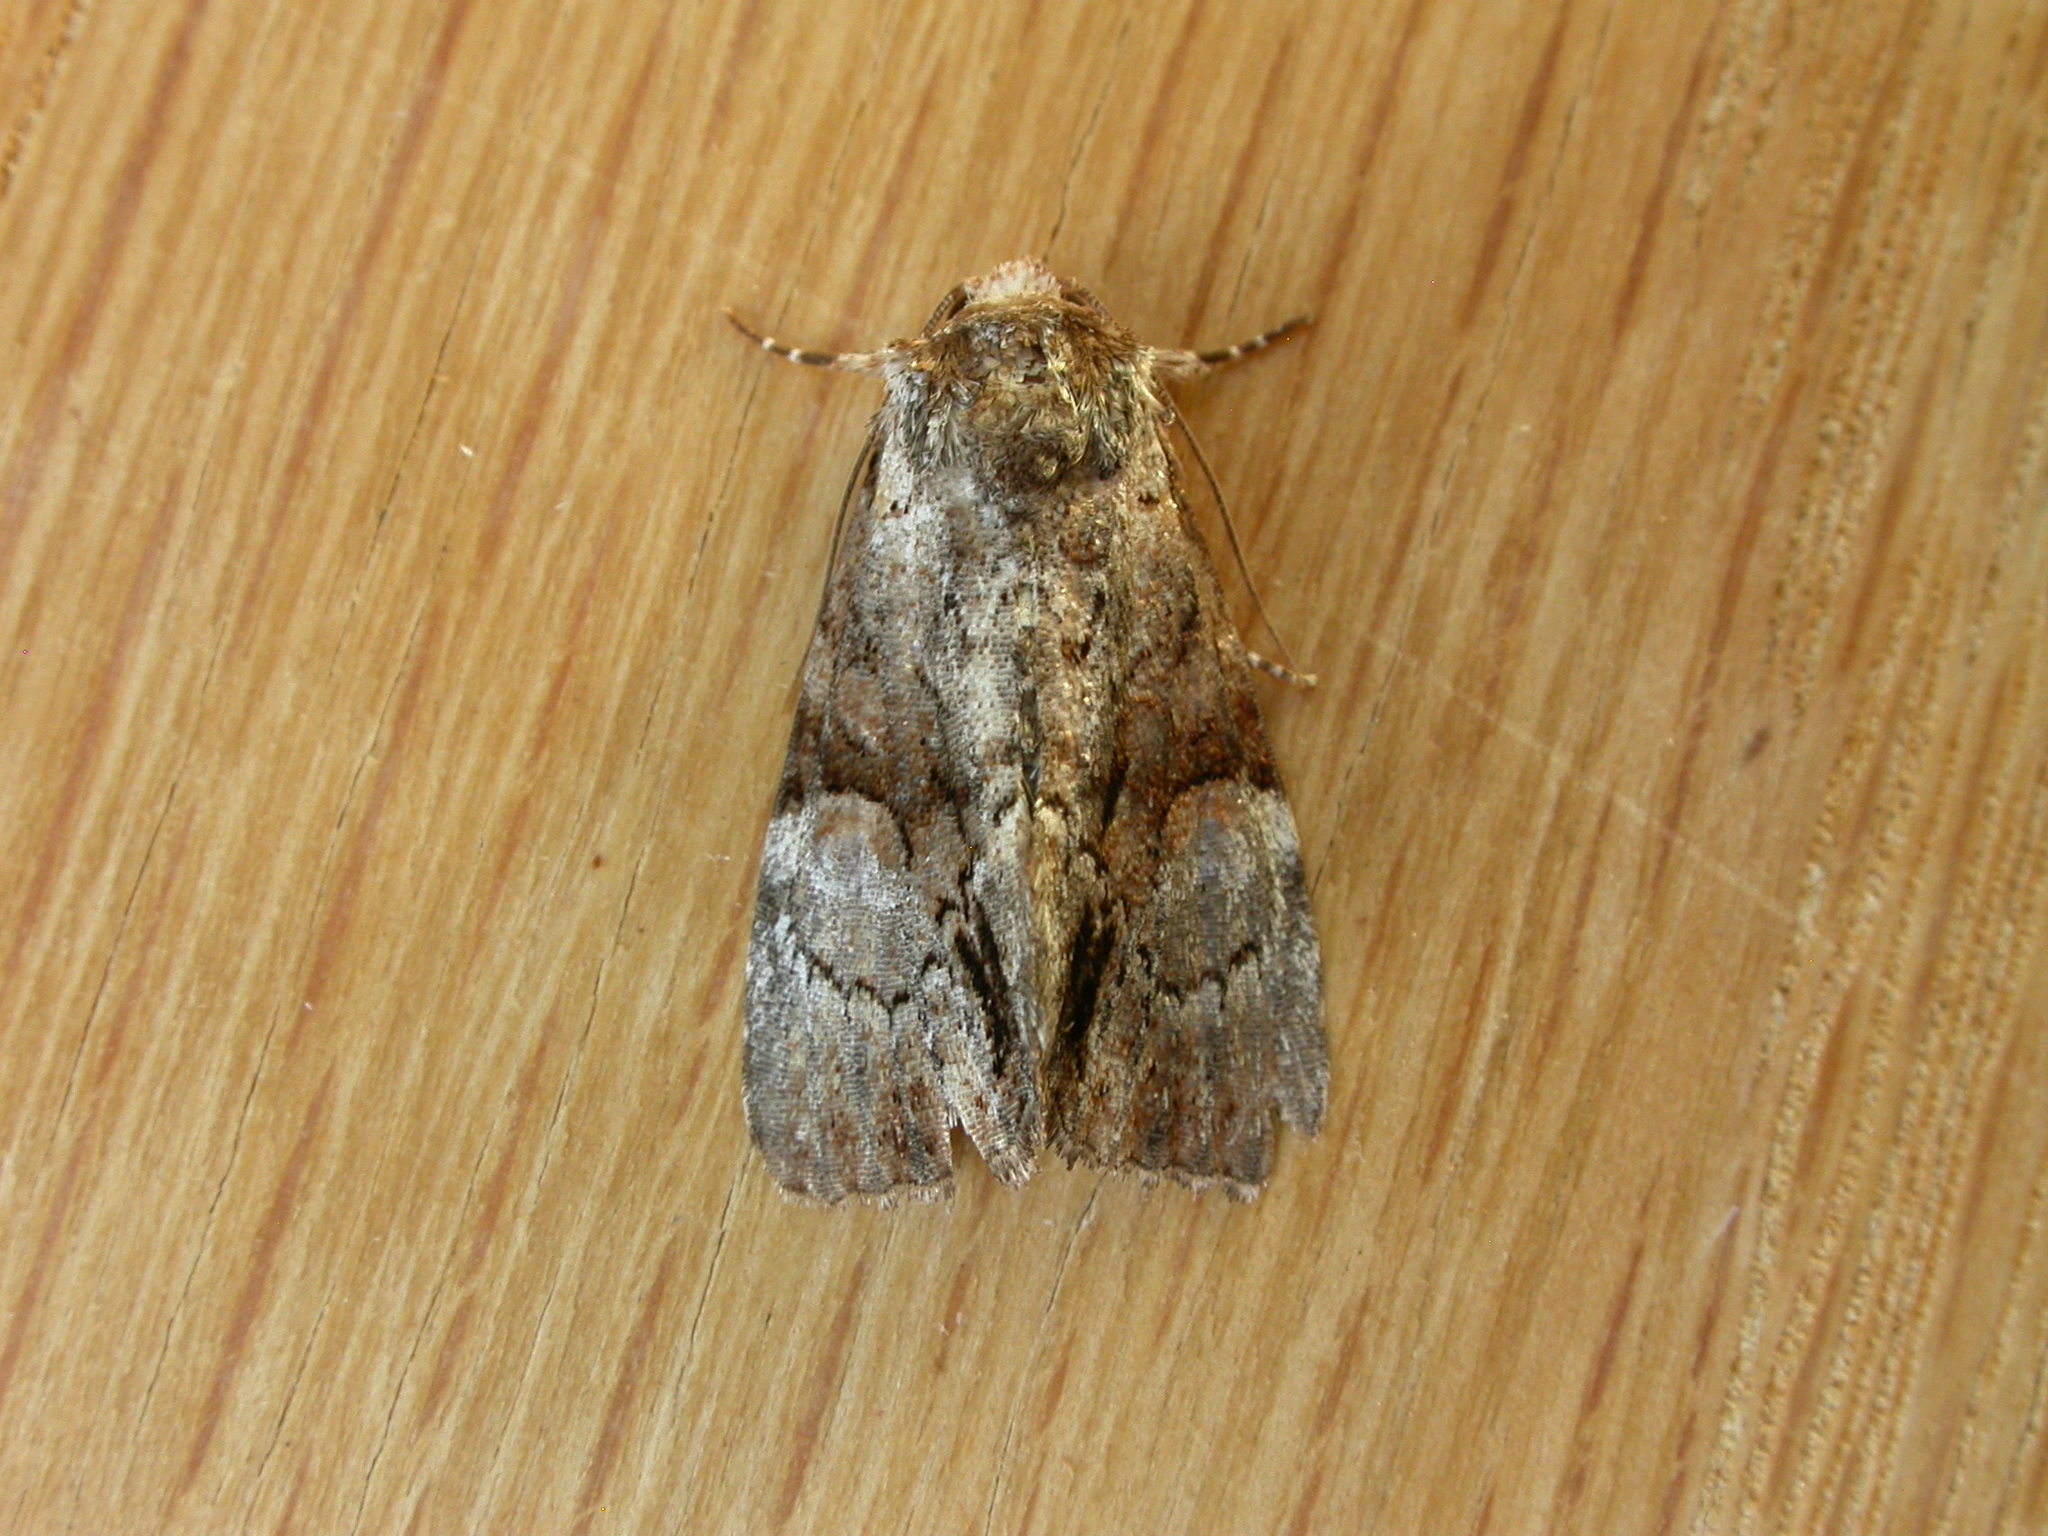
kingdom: Animalia
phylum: Arthropoda
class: Insecta
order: Lepidoptera
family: Noctuidae
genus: Epicyrtica
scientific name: Epicyrtica leucostigma
